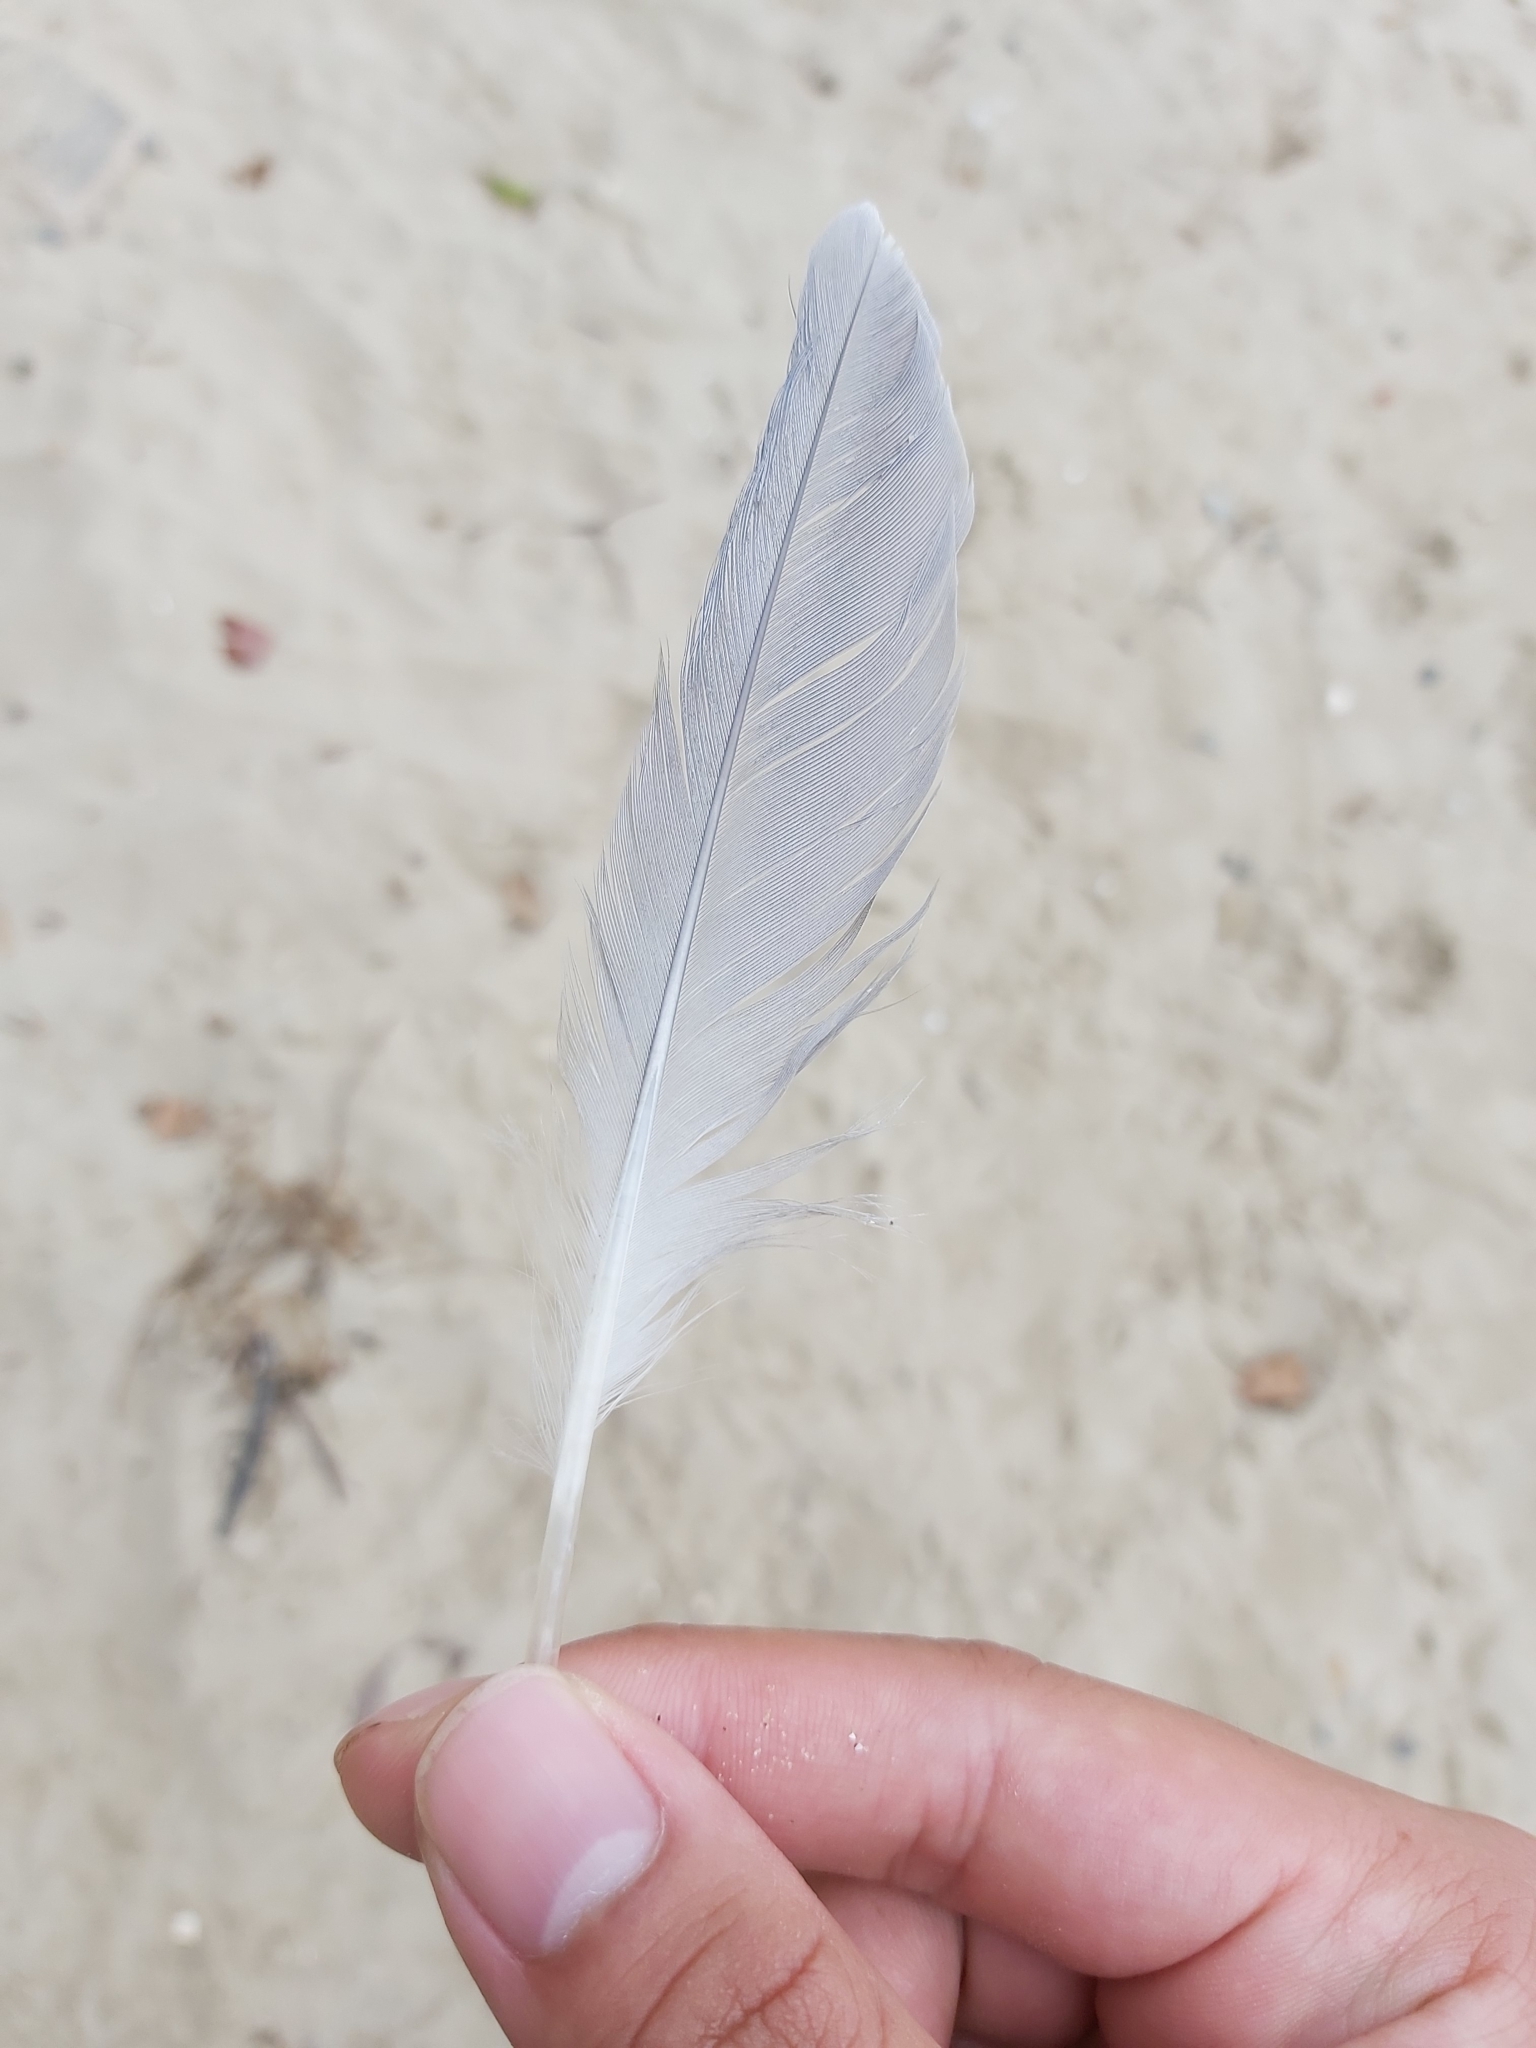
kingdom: Animalia
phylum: Chordata
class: Aves
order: Charadriiformes
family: Laridae
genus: Chroicocephalus
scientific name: Chroicocephalus novaehollandiae
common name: Silver gull
